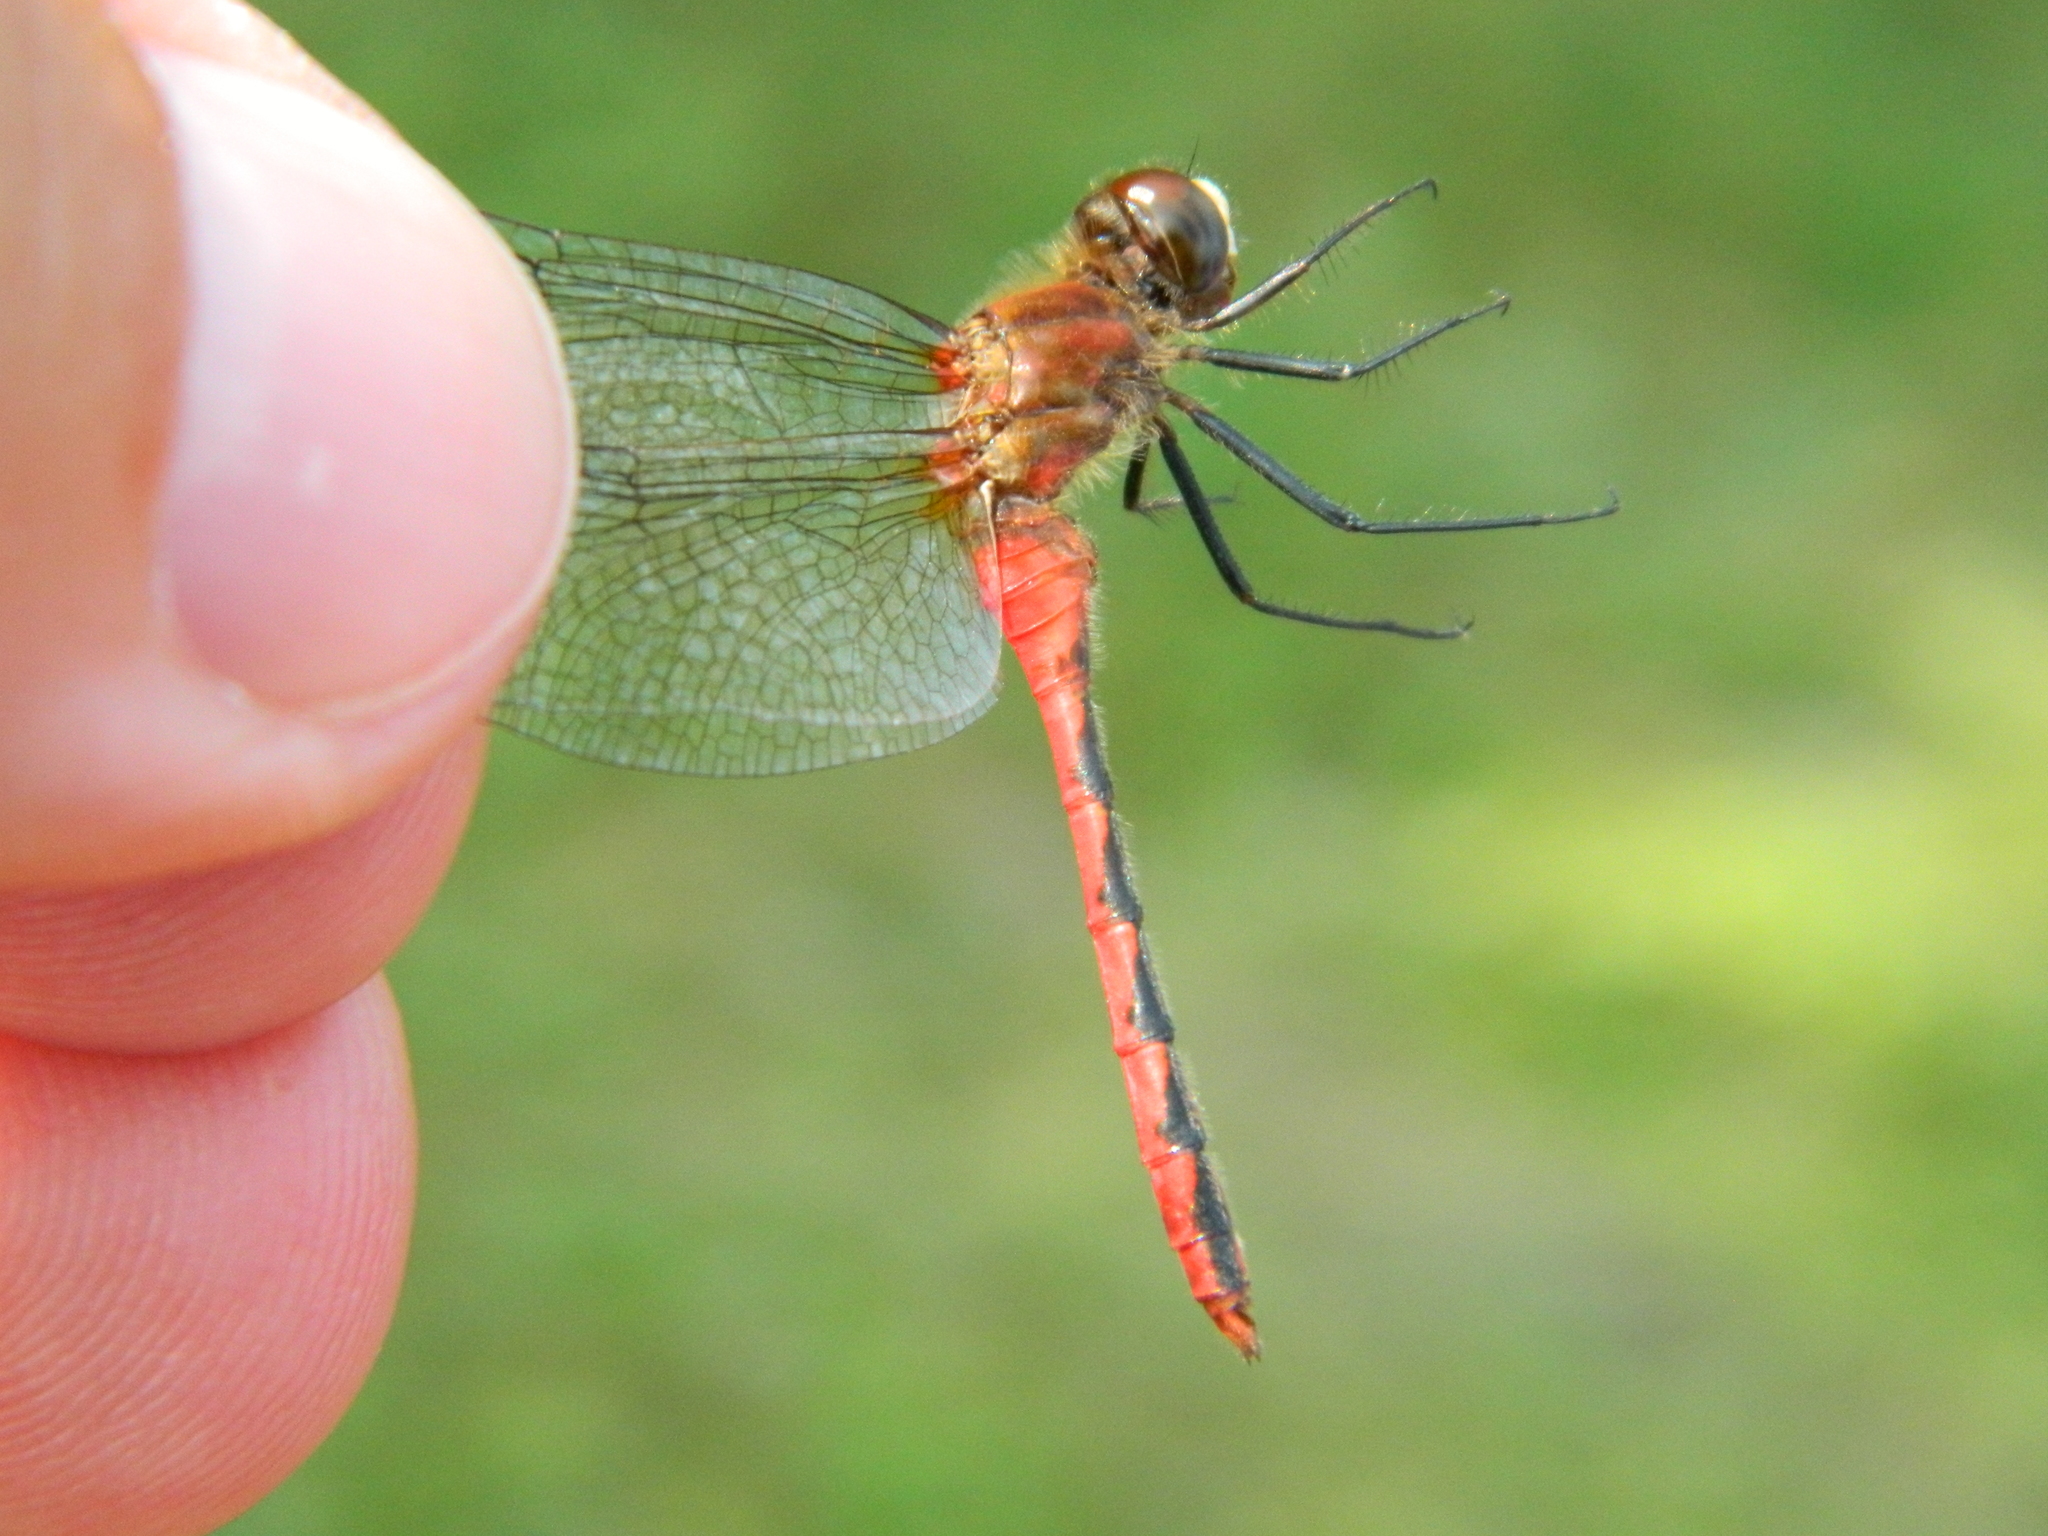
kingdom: Animalia
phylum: Arthropoda
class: Insecta
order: Odonata
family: Libellulidae
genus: Sympetrum
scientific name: Sympetrum obtrusum
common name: White-faced meadowhawk
